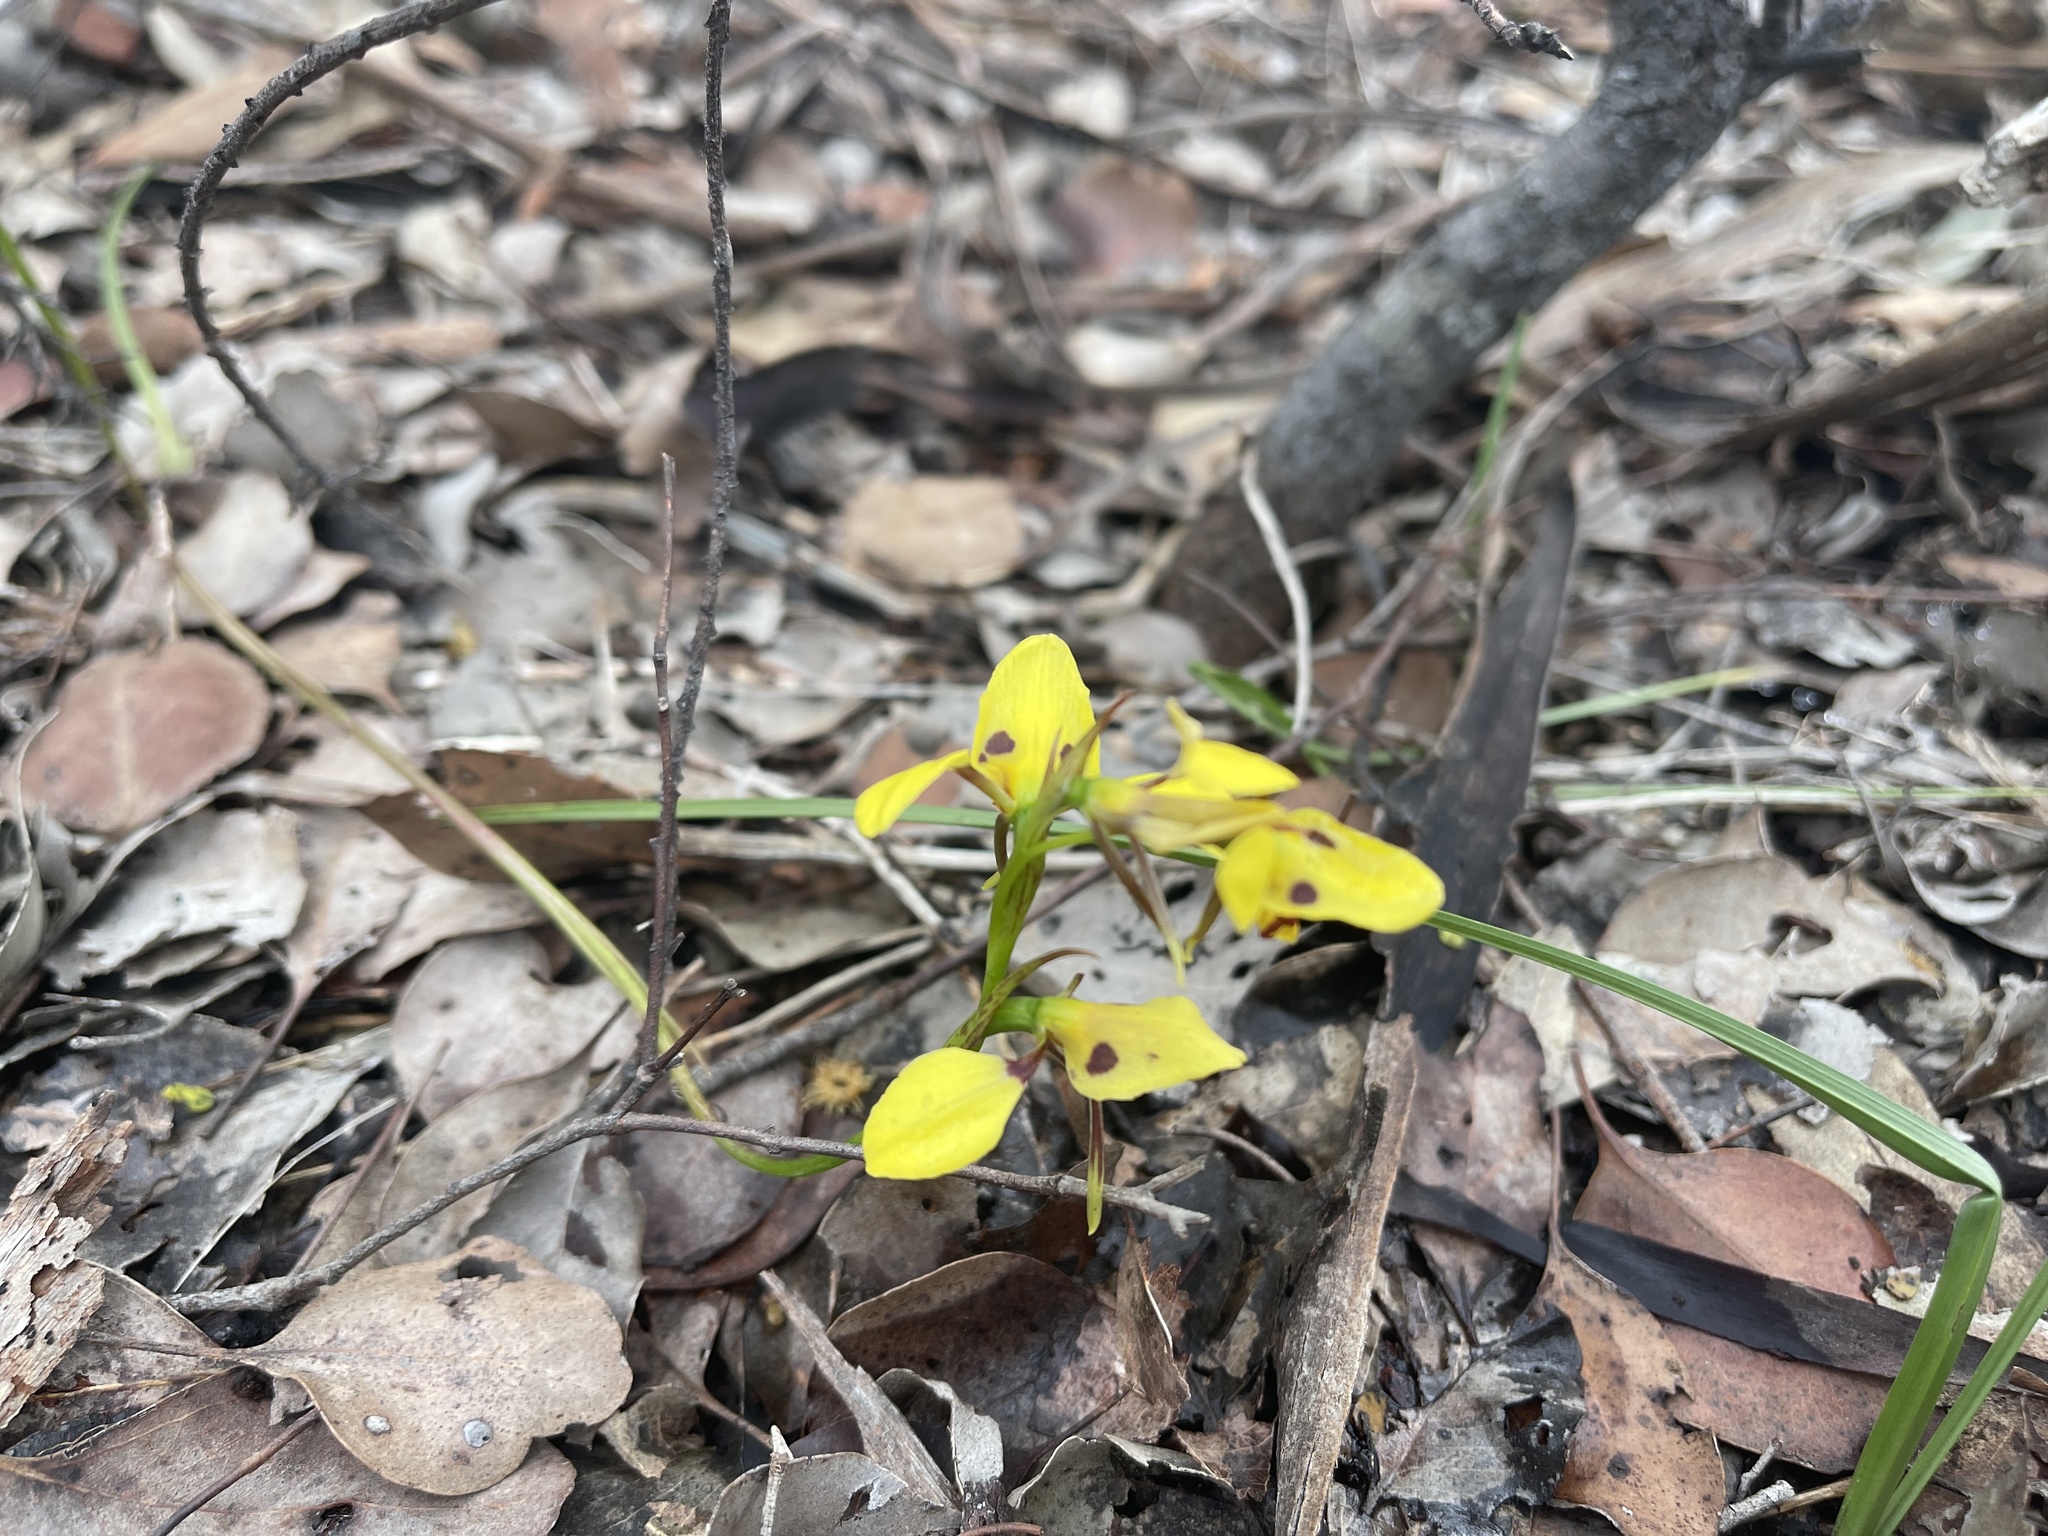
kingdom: Plantae
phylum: Tracheophyta
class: Liliopsida
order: Asparagales
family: Orchidaceae
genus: Diuris
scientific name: Diuris sulphurea
